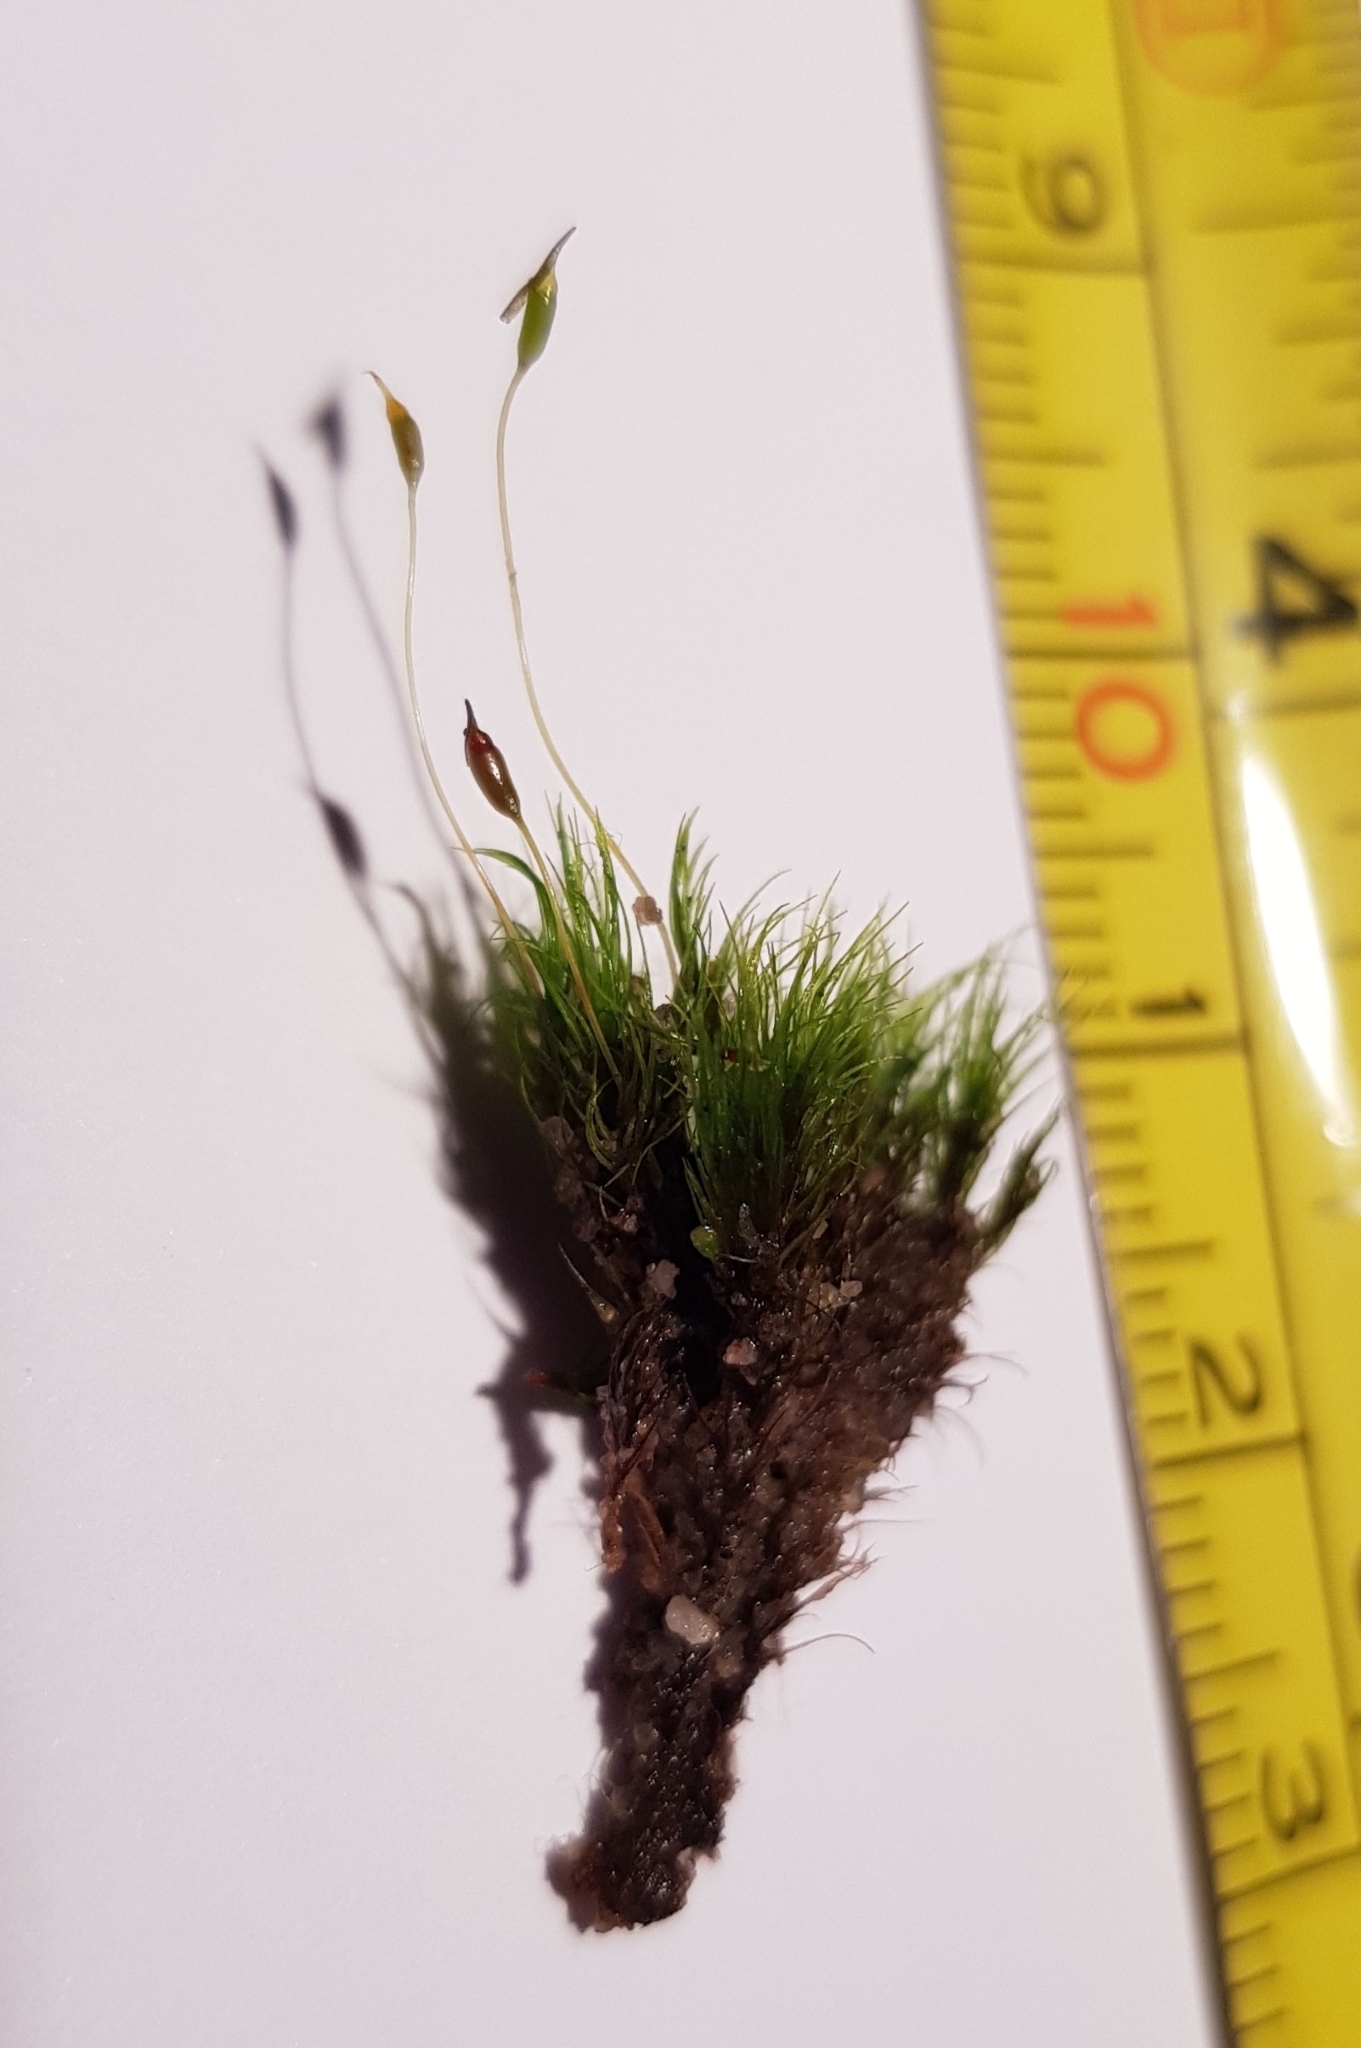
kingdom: Plantae
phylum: Bryophyta
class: Bryopsida
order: Dicranales
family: Dicranellaceae
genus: Dicranella
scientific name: Dicranella heteromalla
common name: Silky forklet moss
